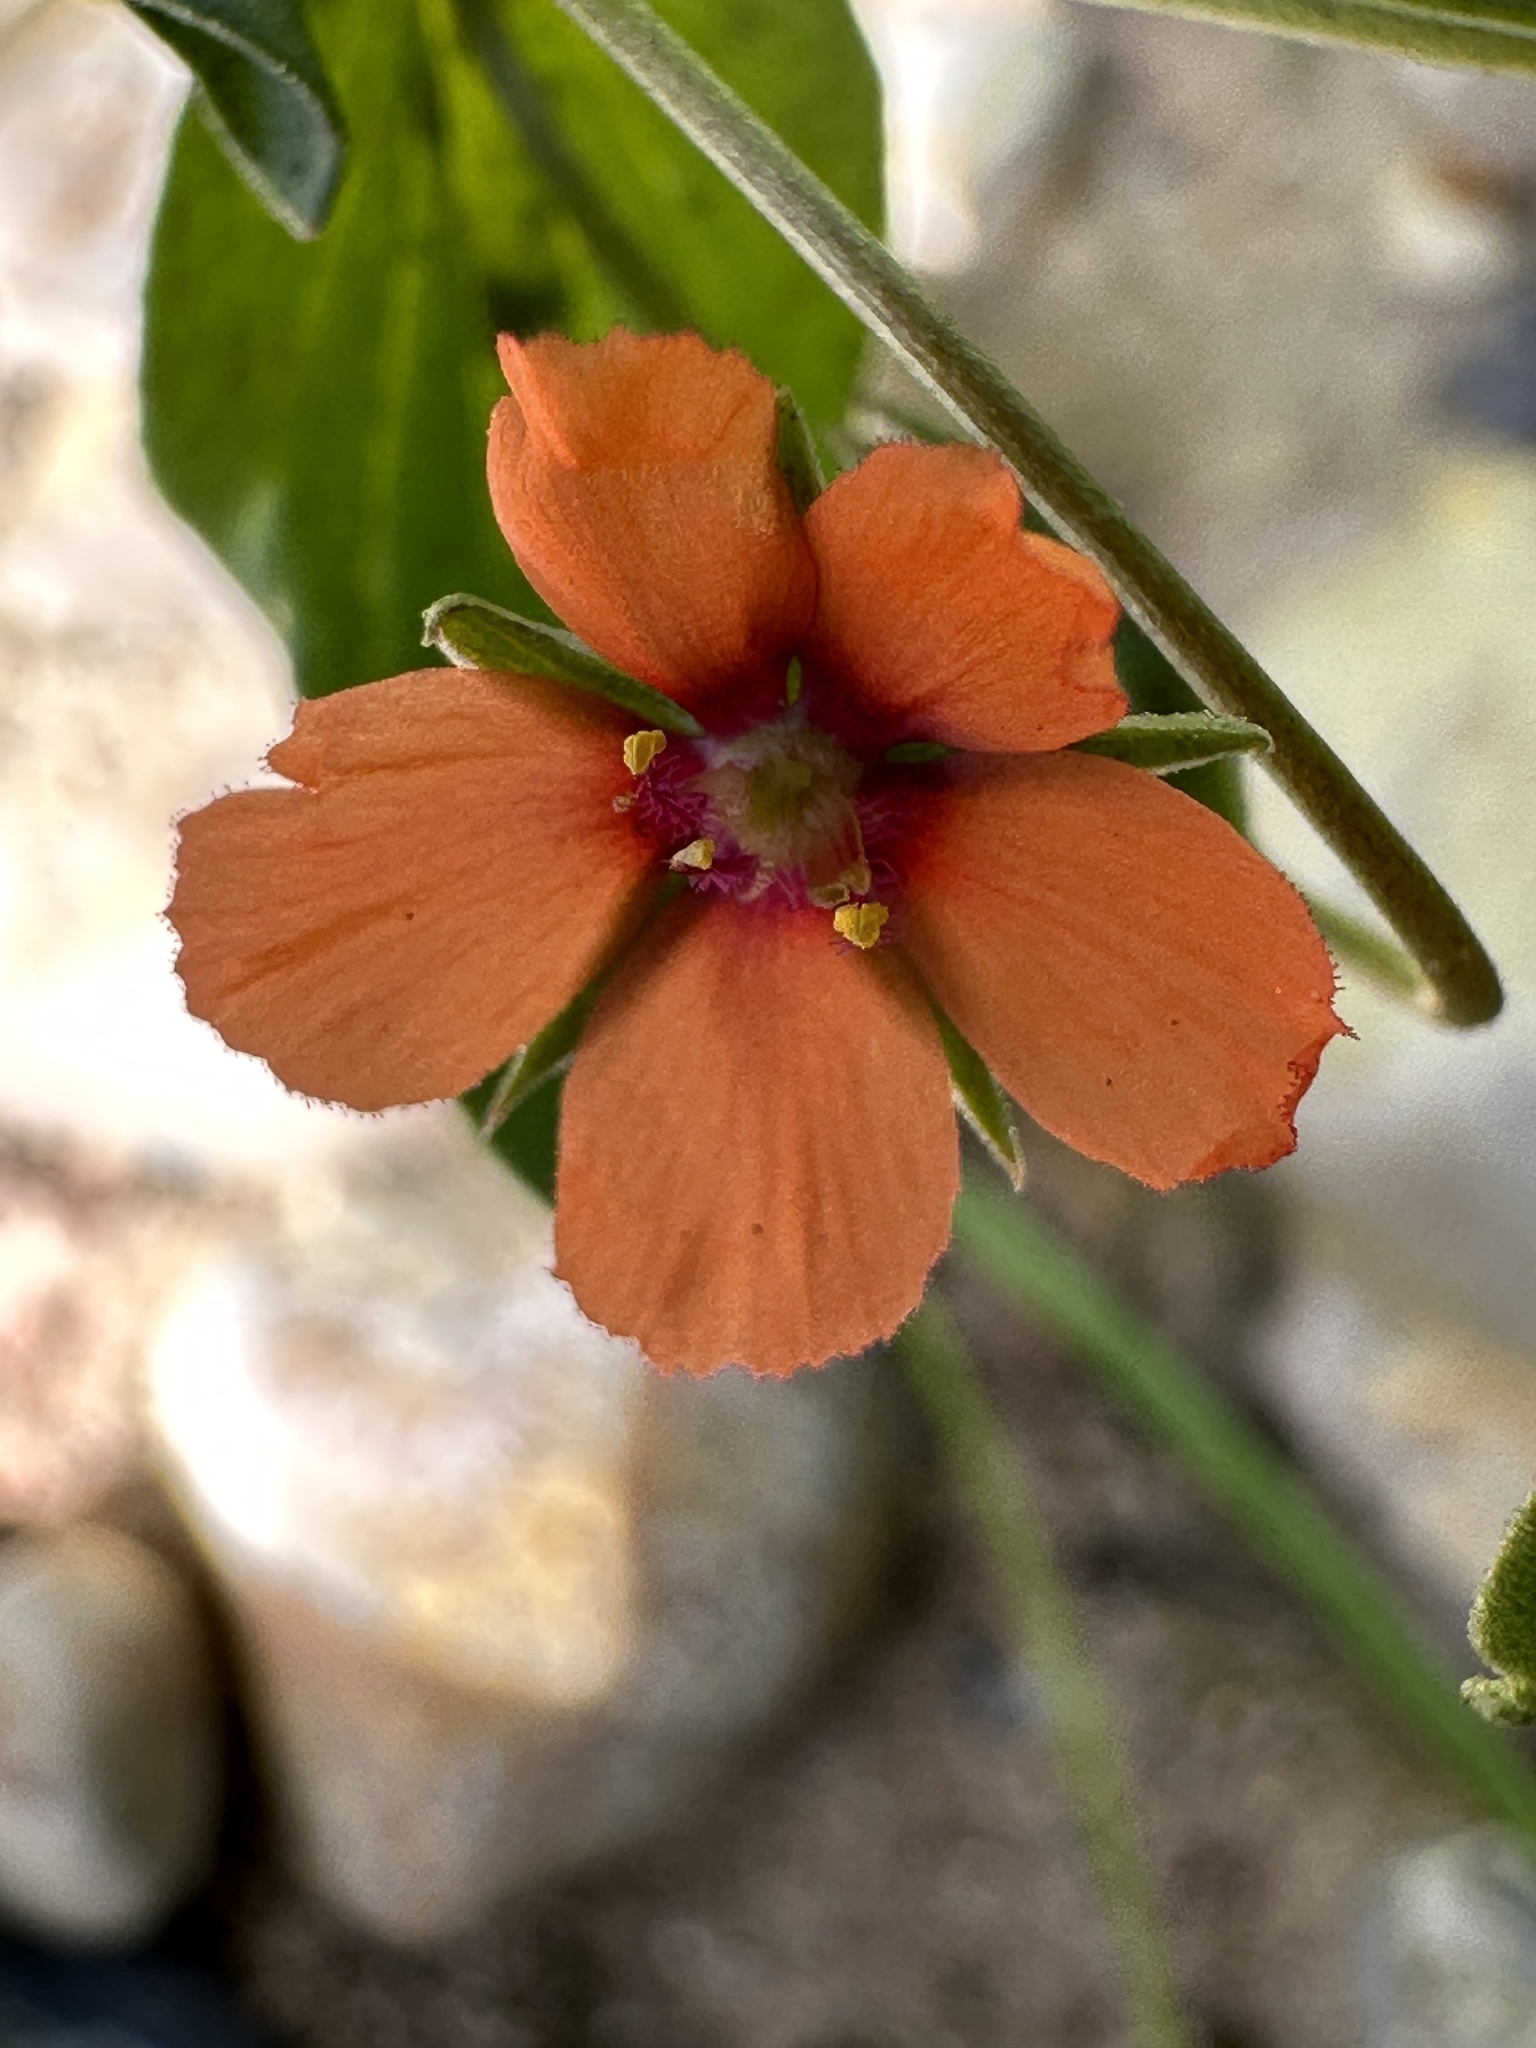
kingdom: Plantae
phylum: Tracheophyta
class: Magnoliopsida
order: Ericales
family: Primulaceae
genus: Lysimachia
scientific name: Lysimachia arvensis
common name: Scarlet pimpernel
